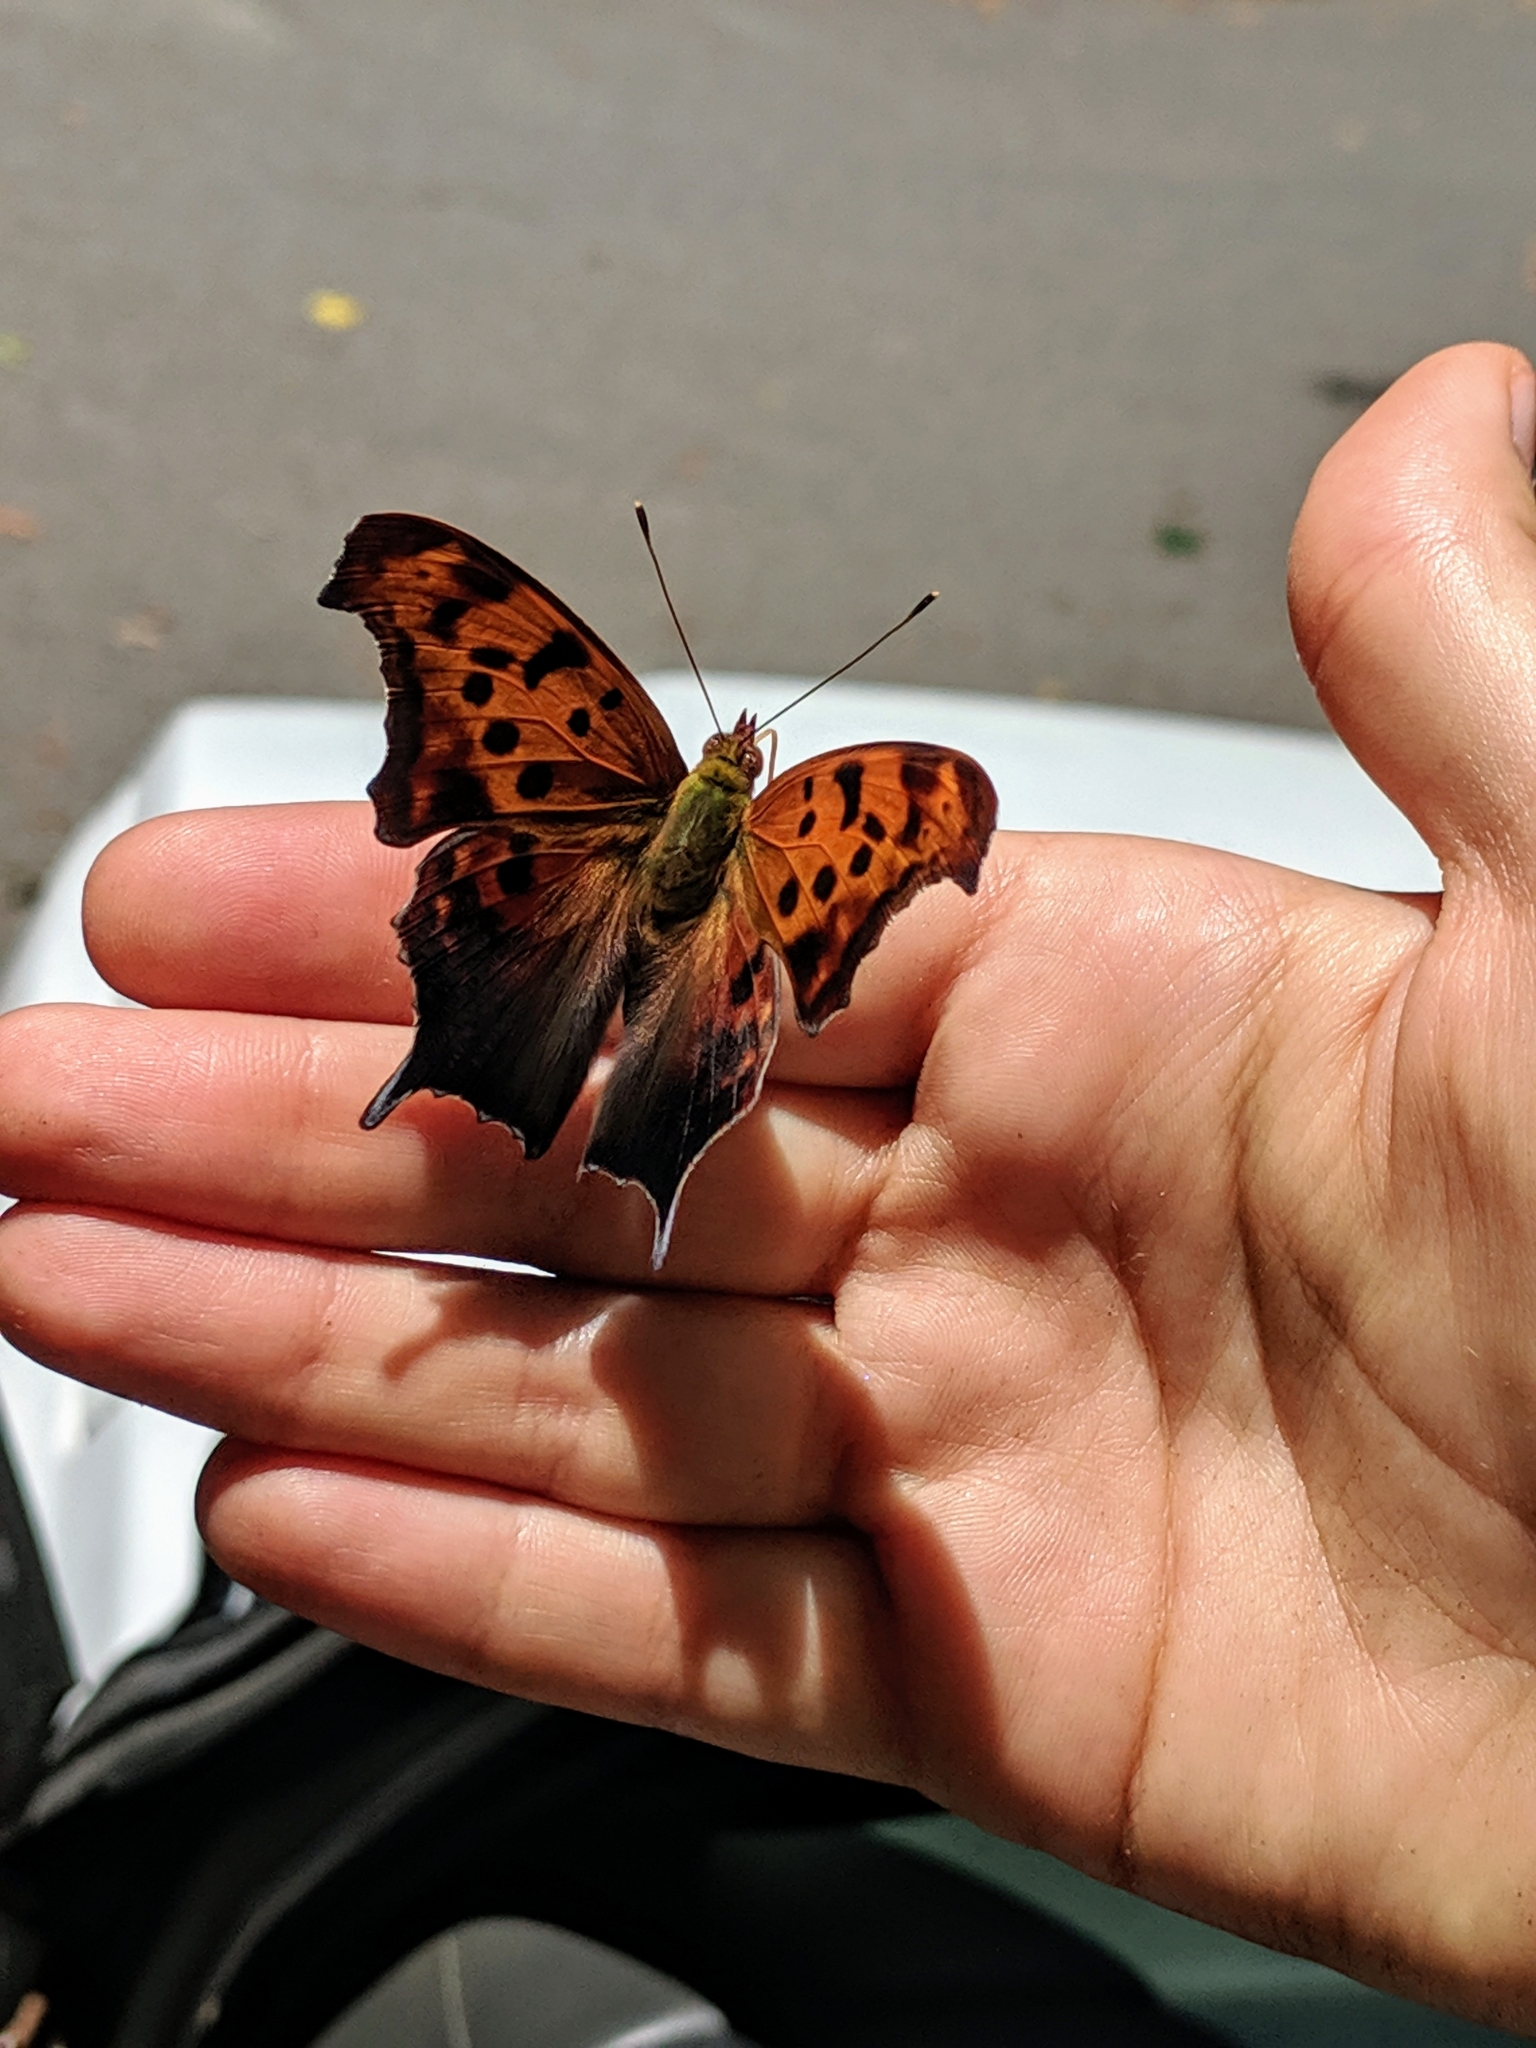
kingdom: Animalia
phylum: Arthropoda
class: Insecta
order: Lepidoptera
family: Nymphalidae
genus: Polygonia
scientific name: Polygonia interrogationis
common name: Question mark
